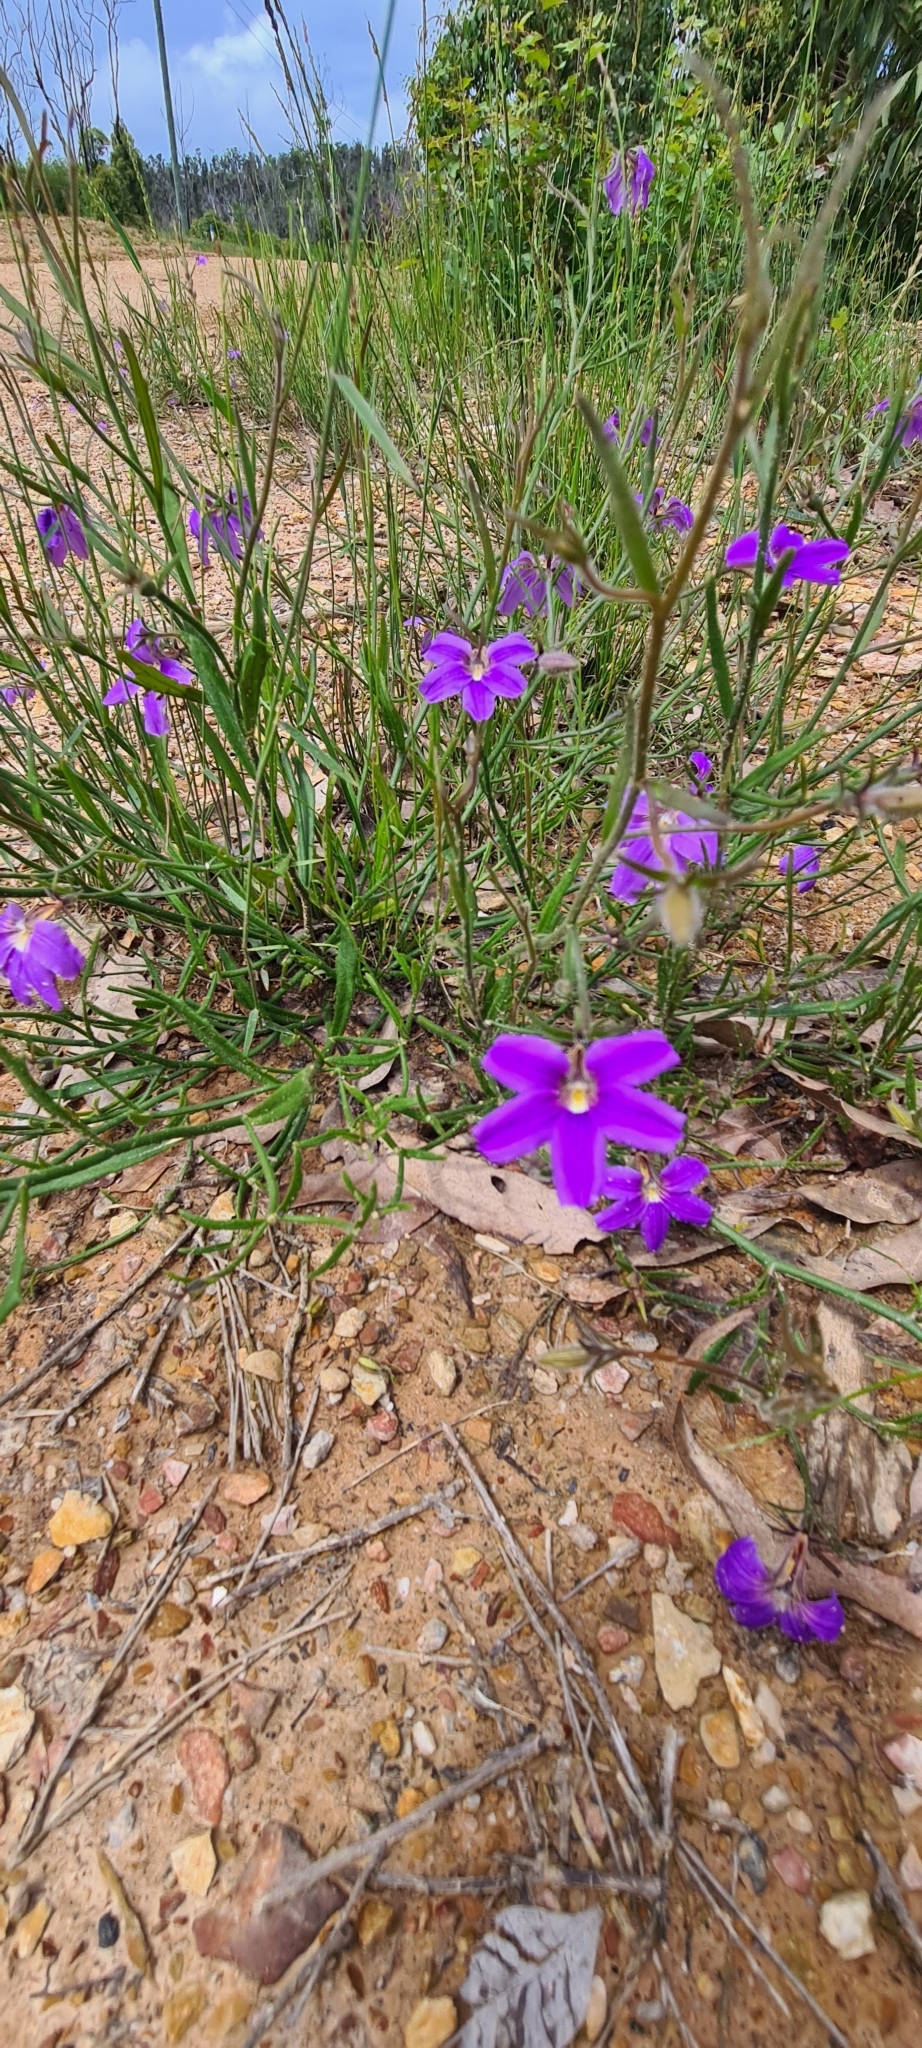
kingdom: Plantae
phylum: Tracheophyta
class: Magnoliopsida
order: Asterales
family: Goodeniaceae
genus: Scaevola
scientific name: Scaevola ramosissima
